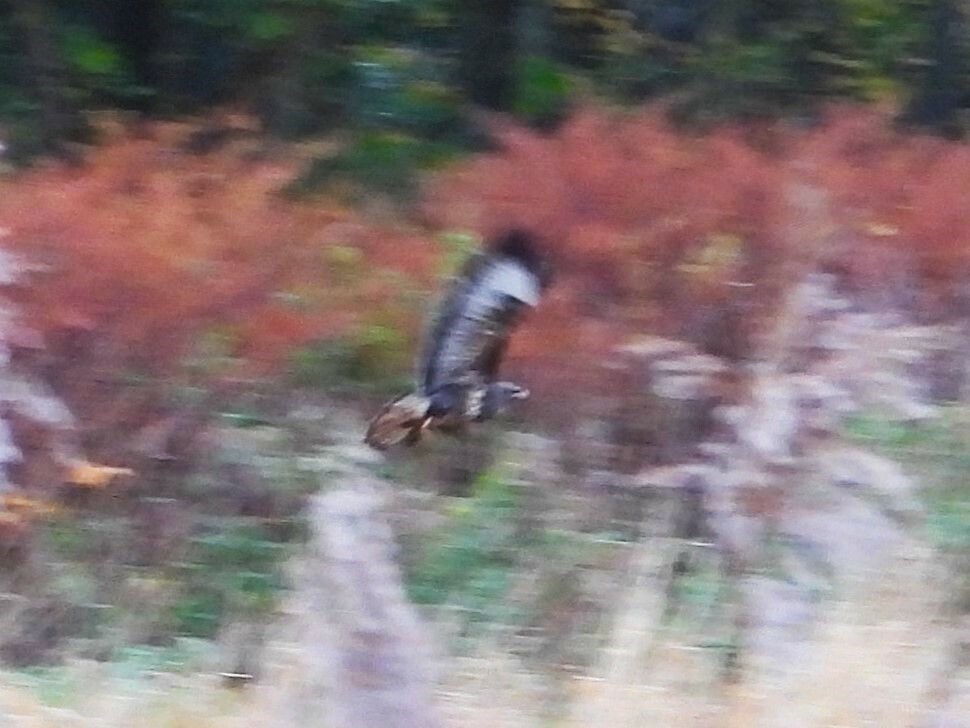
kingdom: Animalia
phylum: Chordata
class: Aves
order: Accipitriformes
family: Accipitridae
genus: Buteo
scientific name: Buteo buteo
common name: Common buzzard
